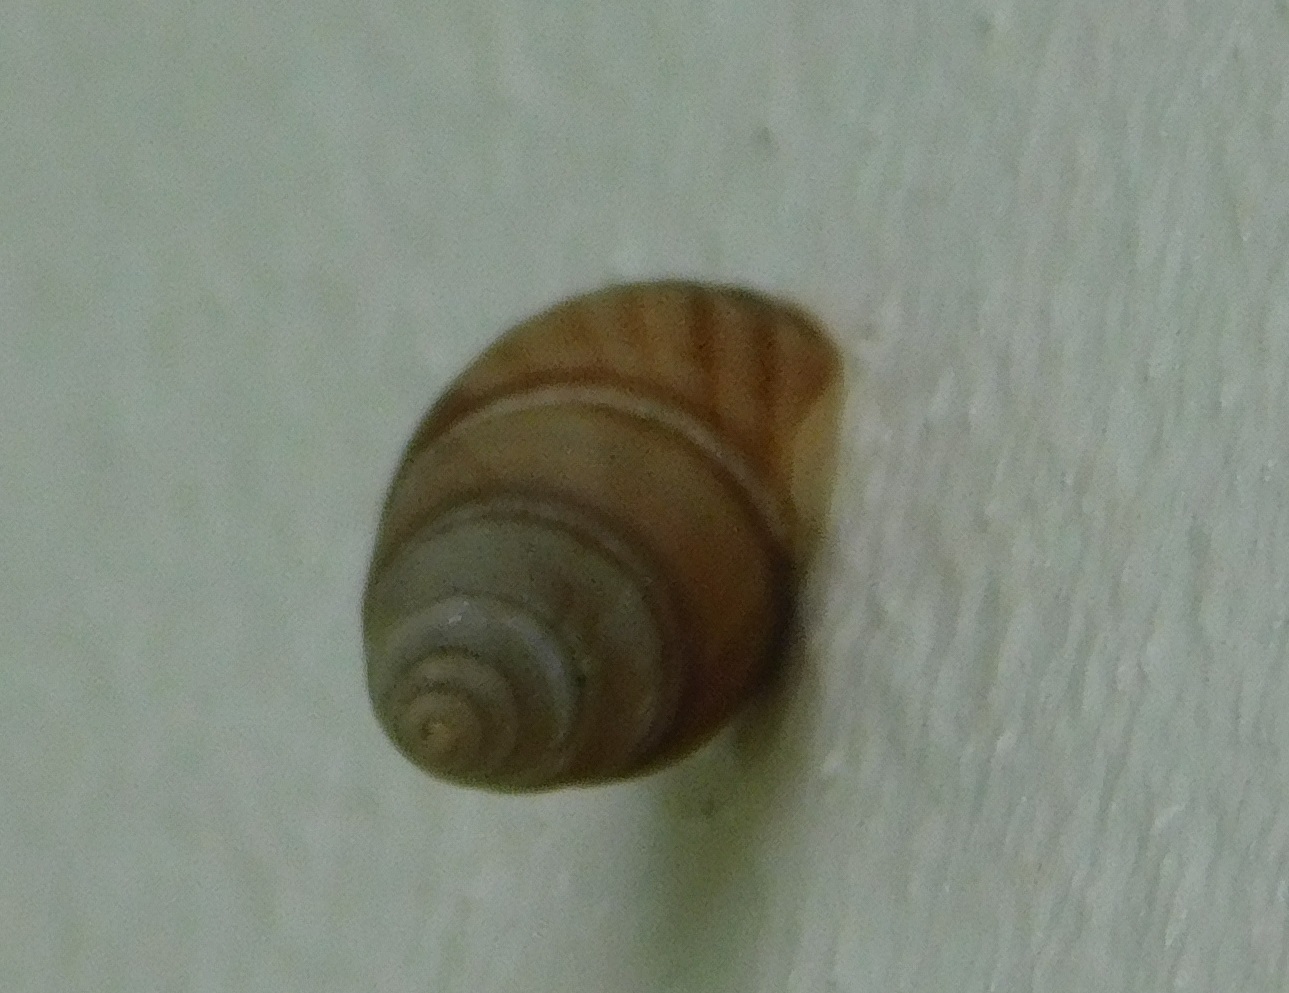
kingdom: Animalia
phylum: Mollusca
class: Gastropoda
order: Stylommatophora
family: Bulimulidae
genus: Bulimulus
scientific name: Bulimulus guadalupensis
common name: West indian bulimulus
